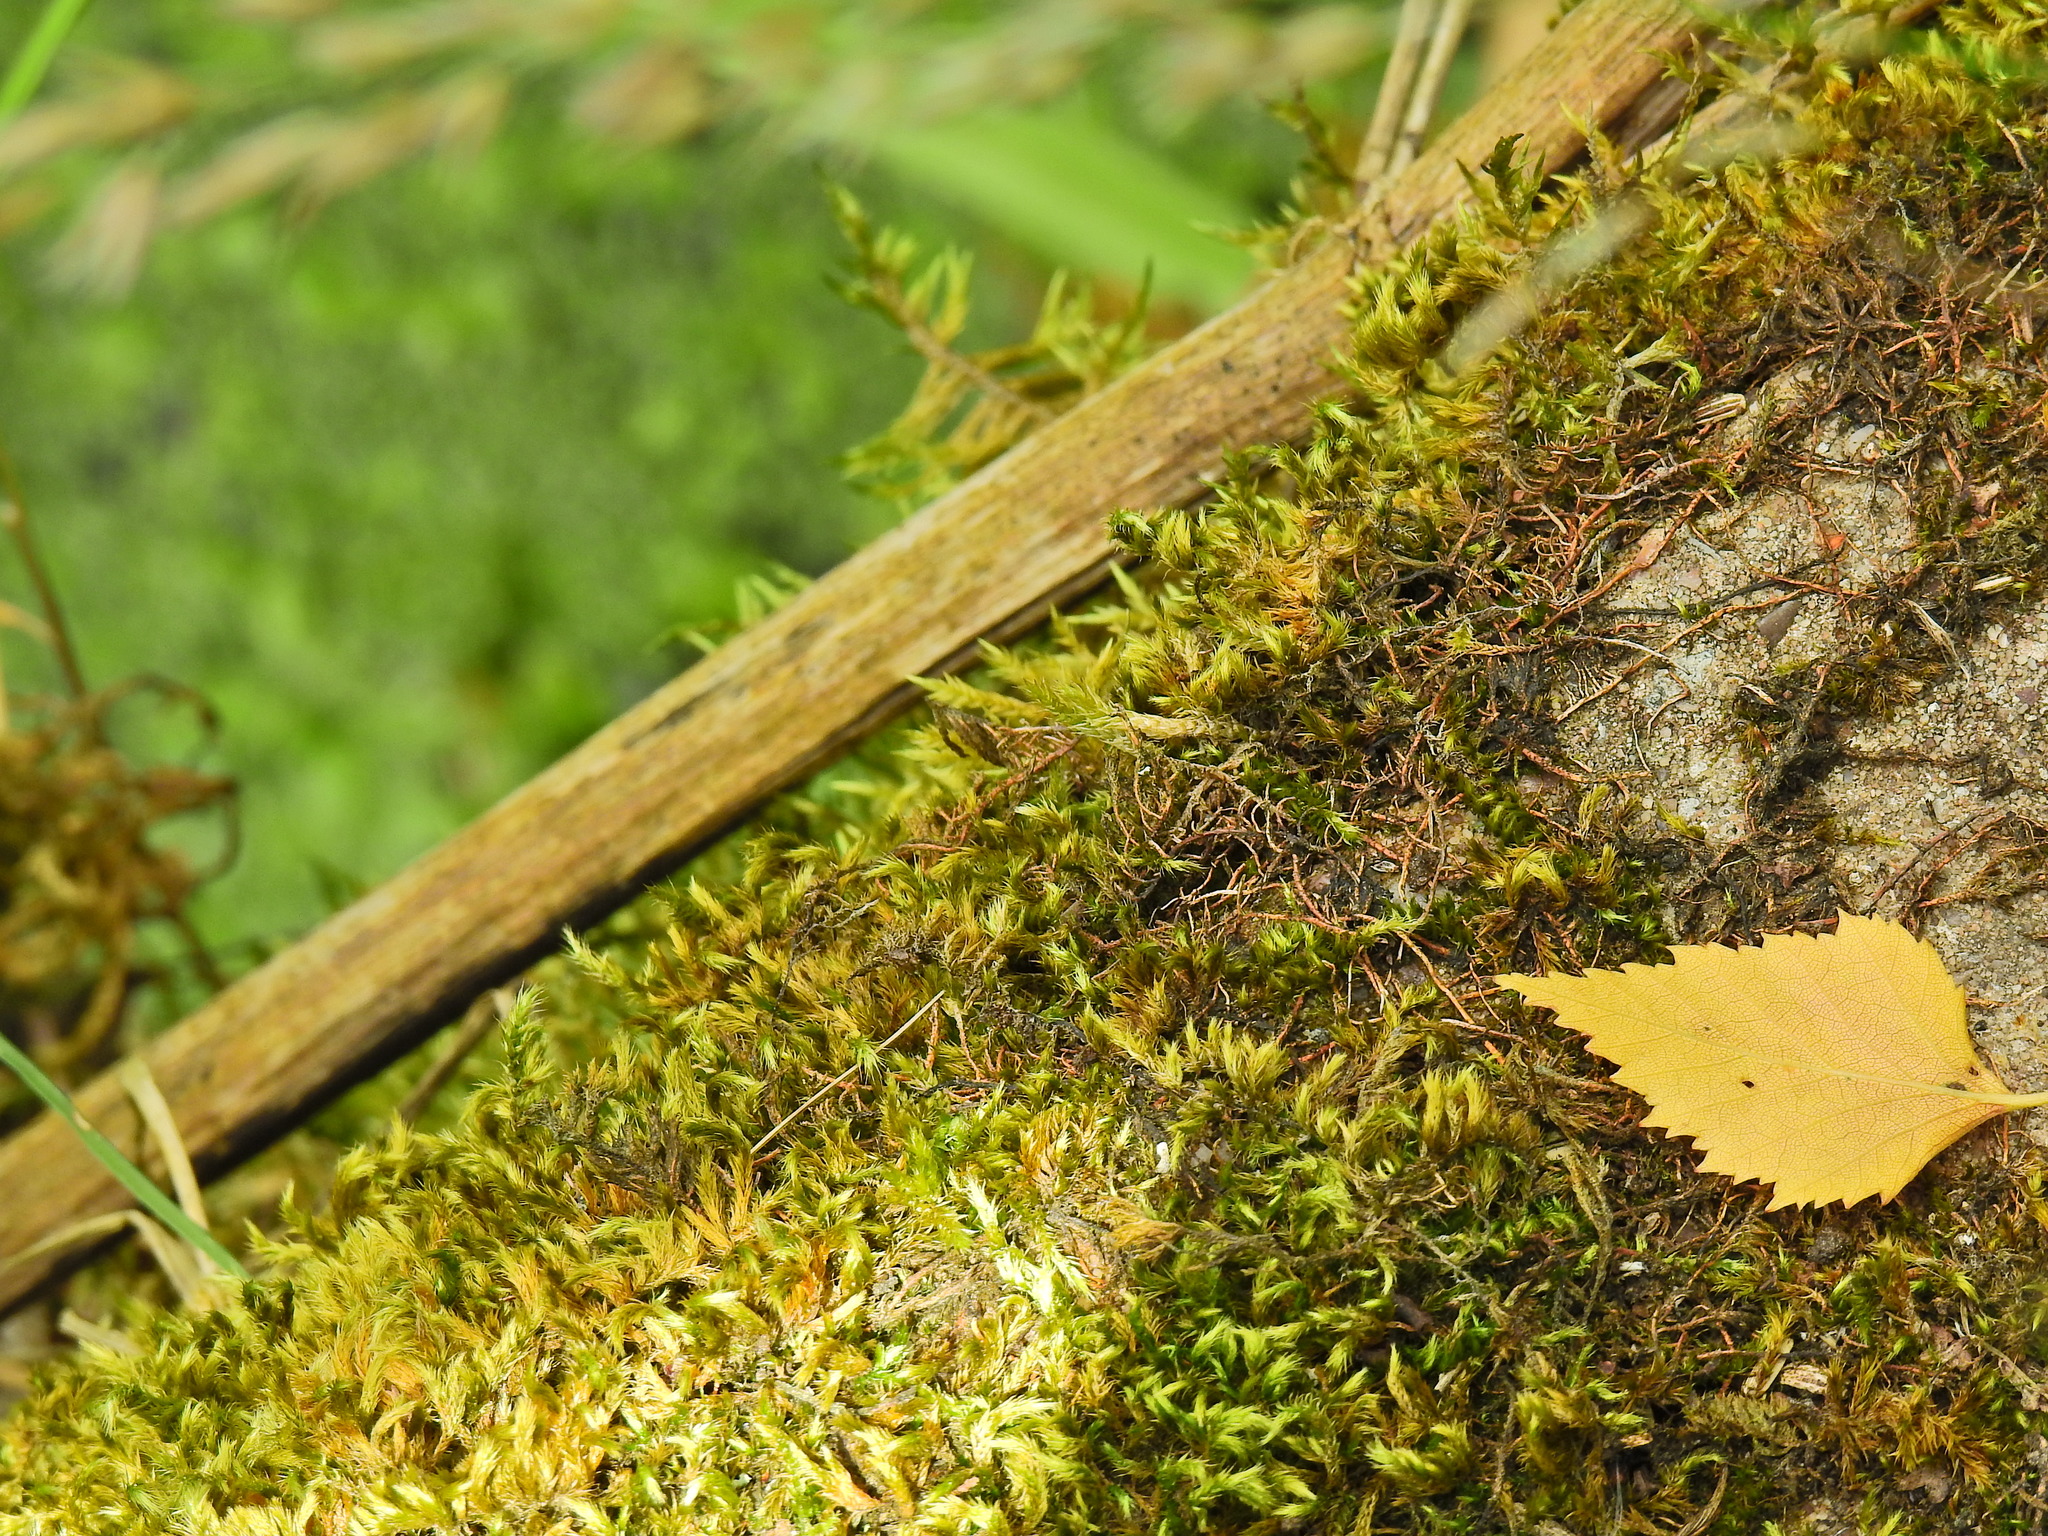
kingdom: Plantae
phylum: Bryophyta
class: Bryopsida
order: Hypnales
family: Brachytheciaceae
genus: Homalothecium
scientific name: Homalothecium sericeum
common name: Silky wall feather-moss
